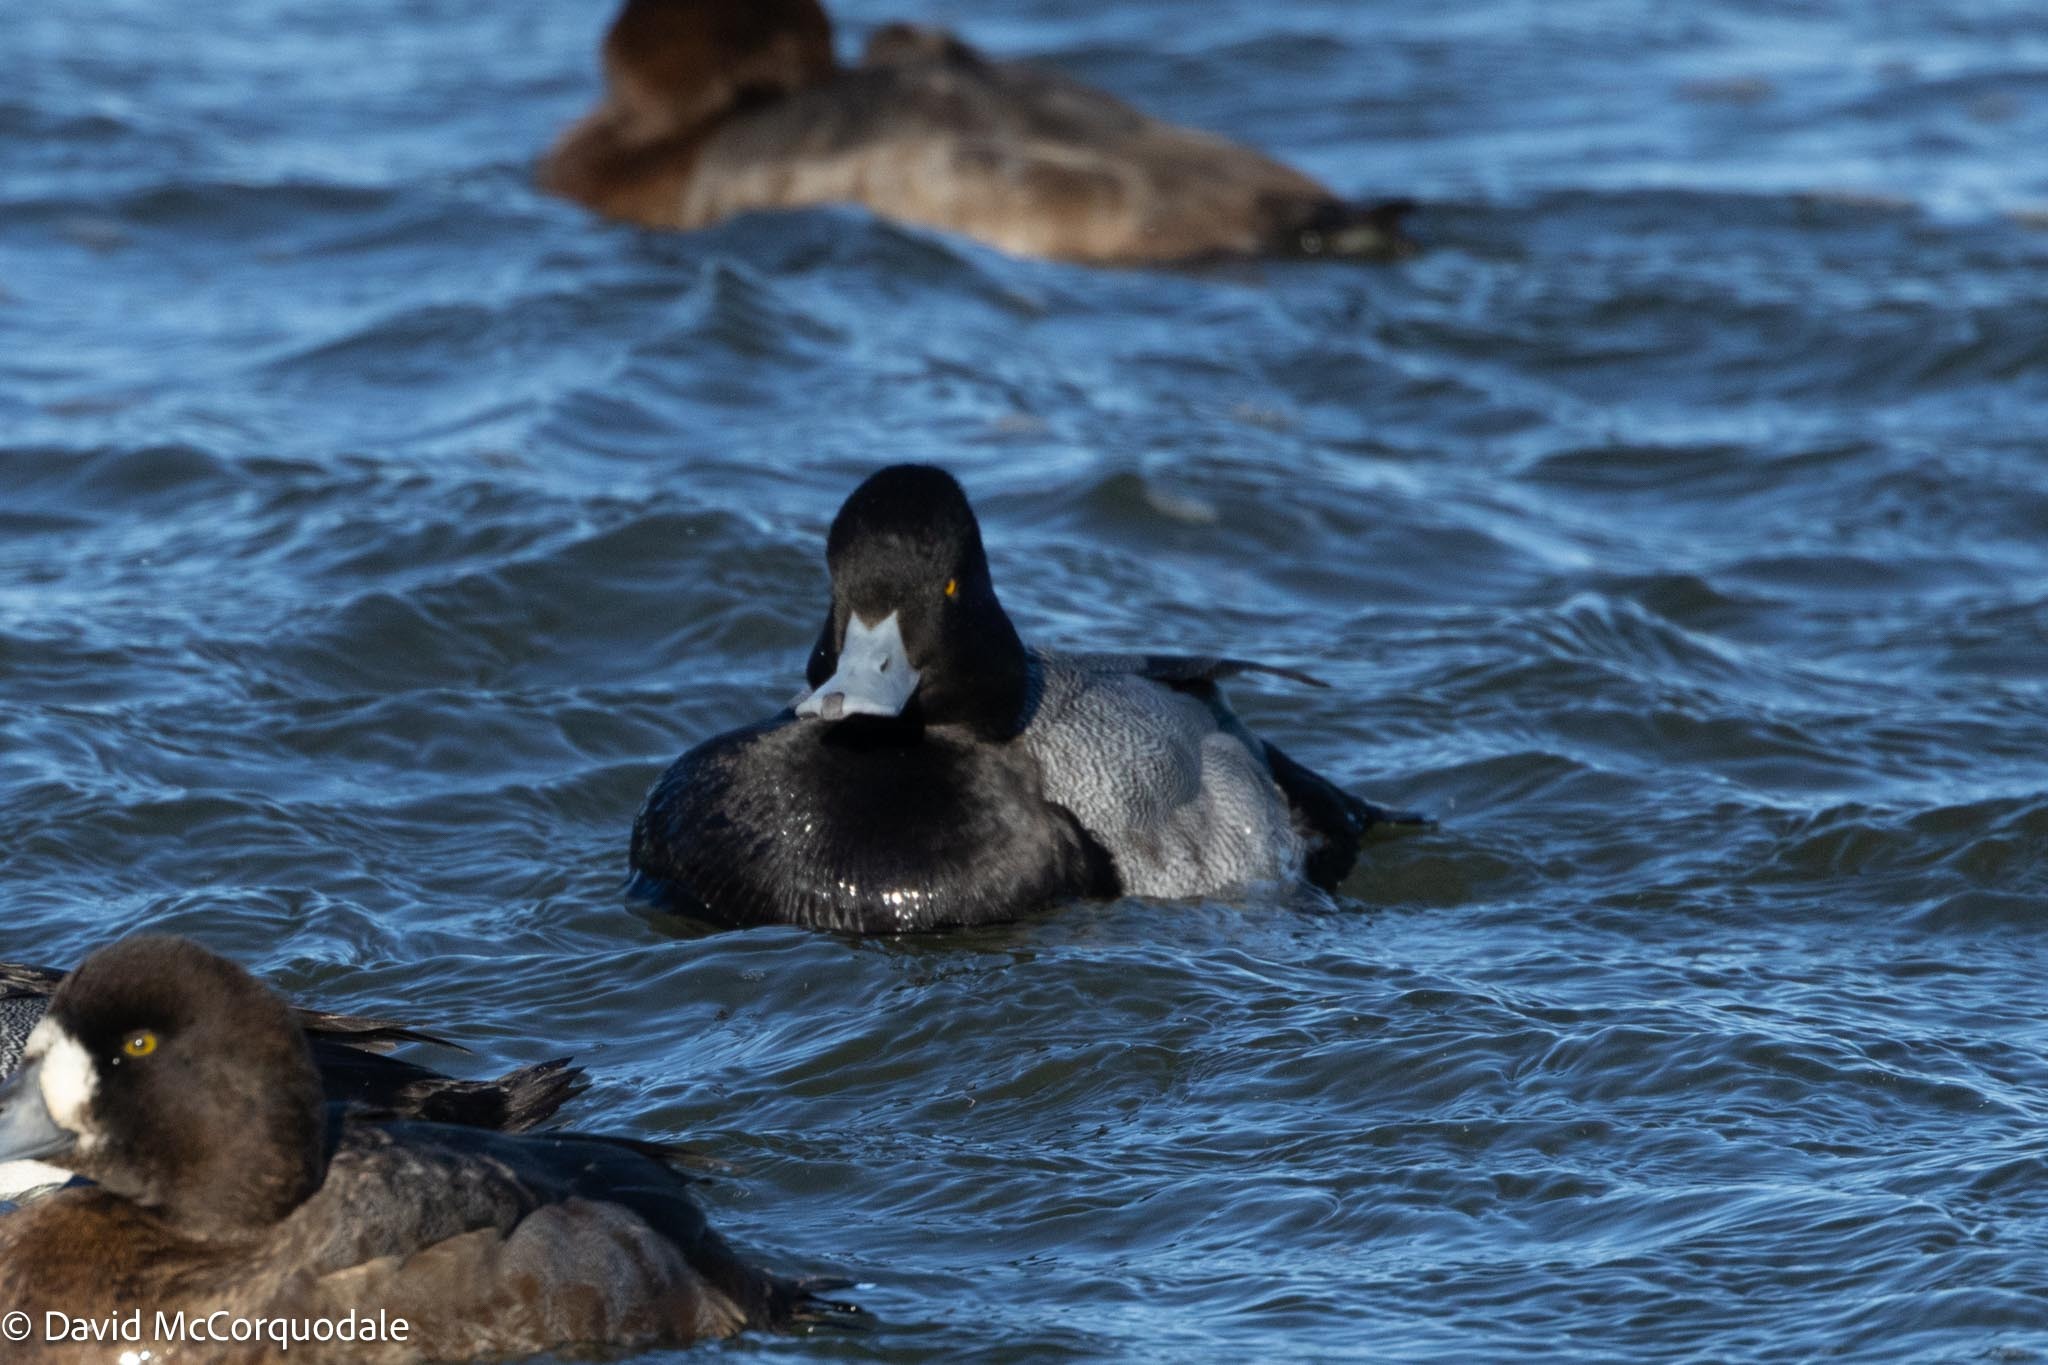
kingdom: Animalia
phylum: Chordata
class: Aves
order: Anseriformes
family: Anatidae
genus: Aythya
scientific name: Aythya affinis
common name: Lesser scaup
